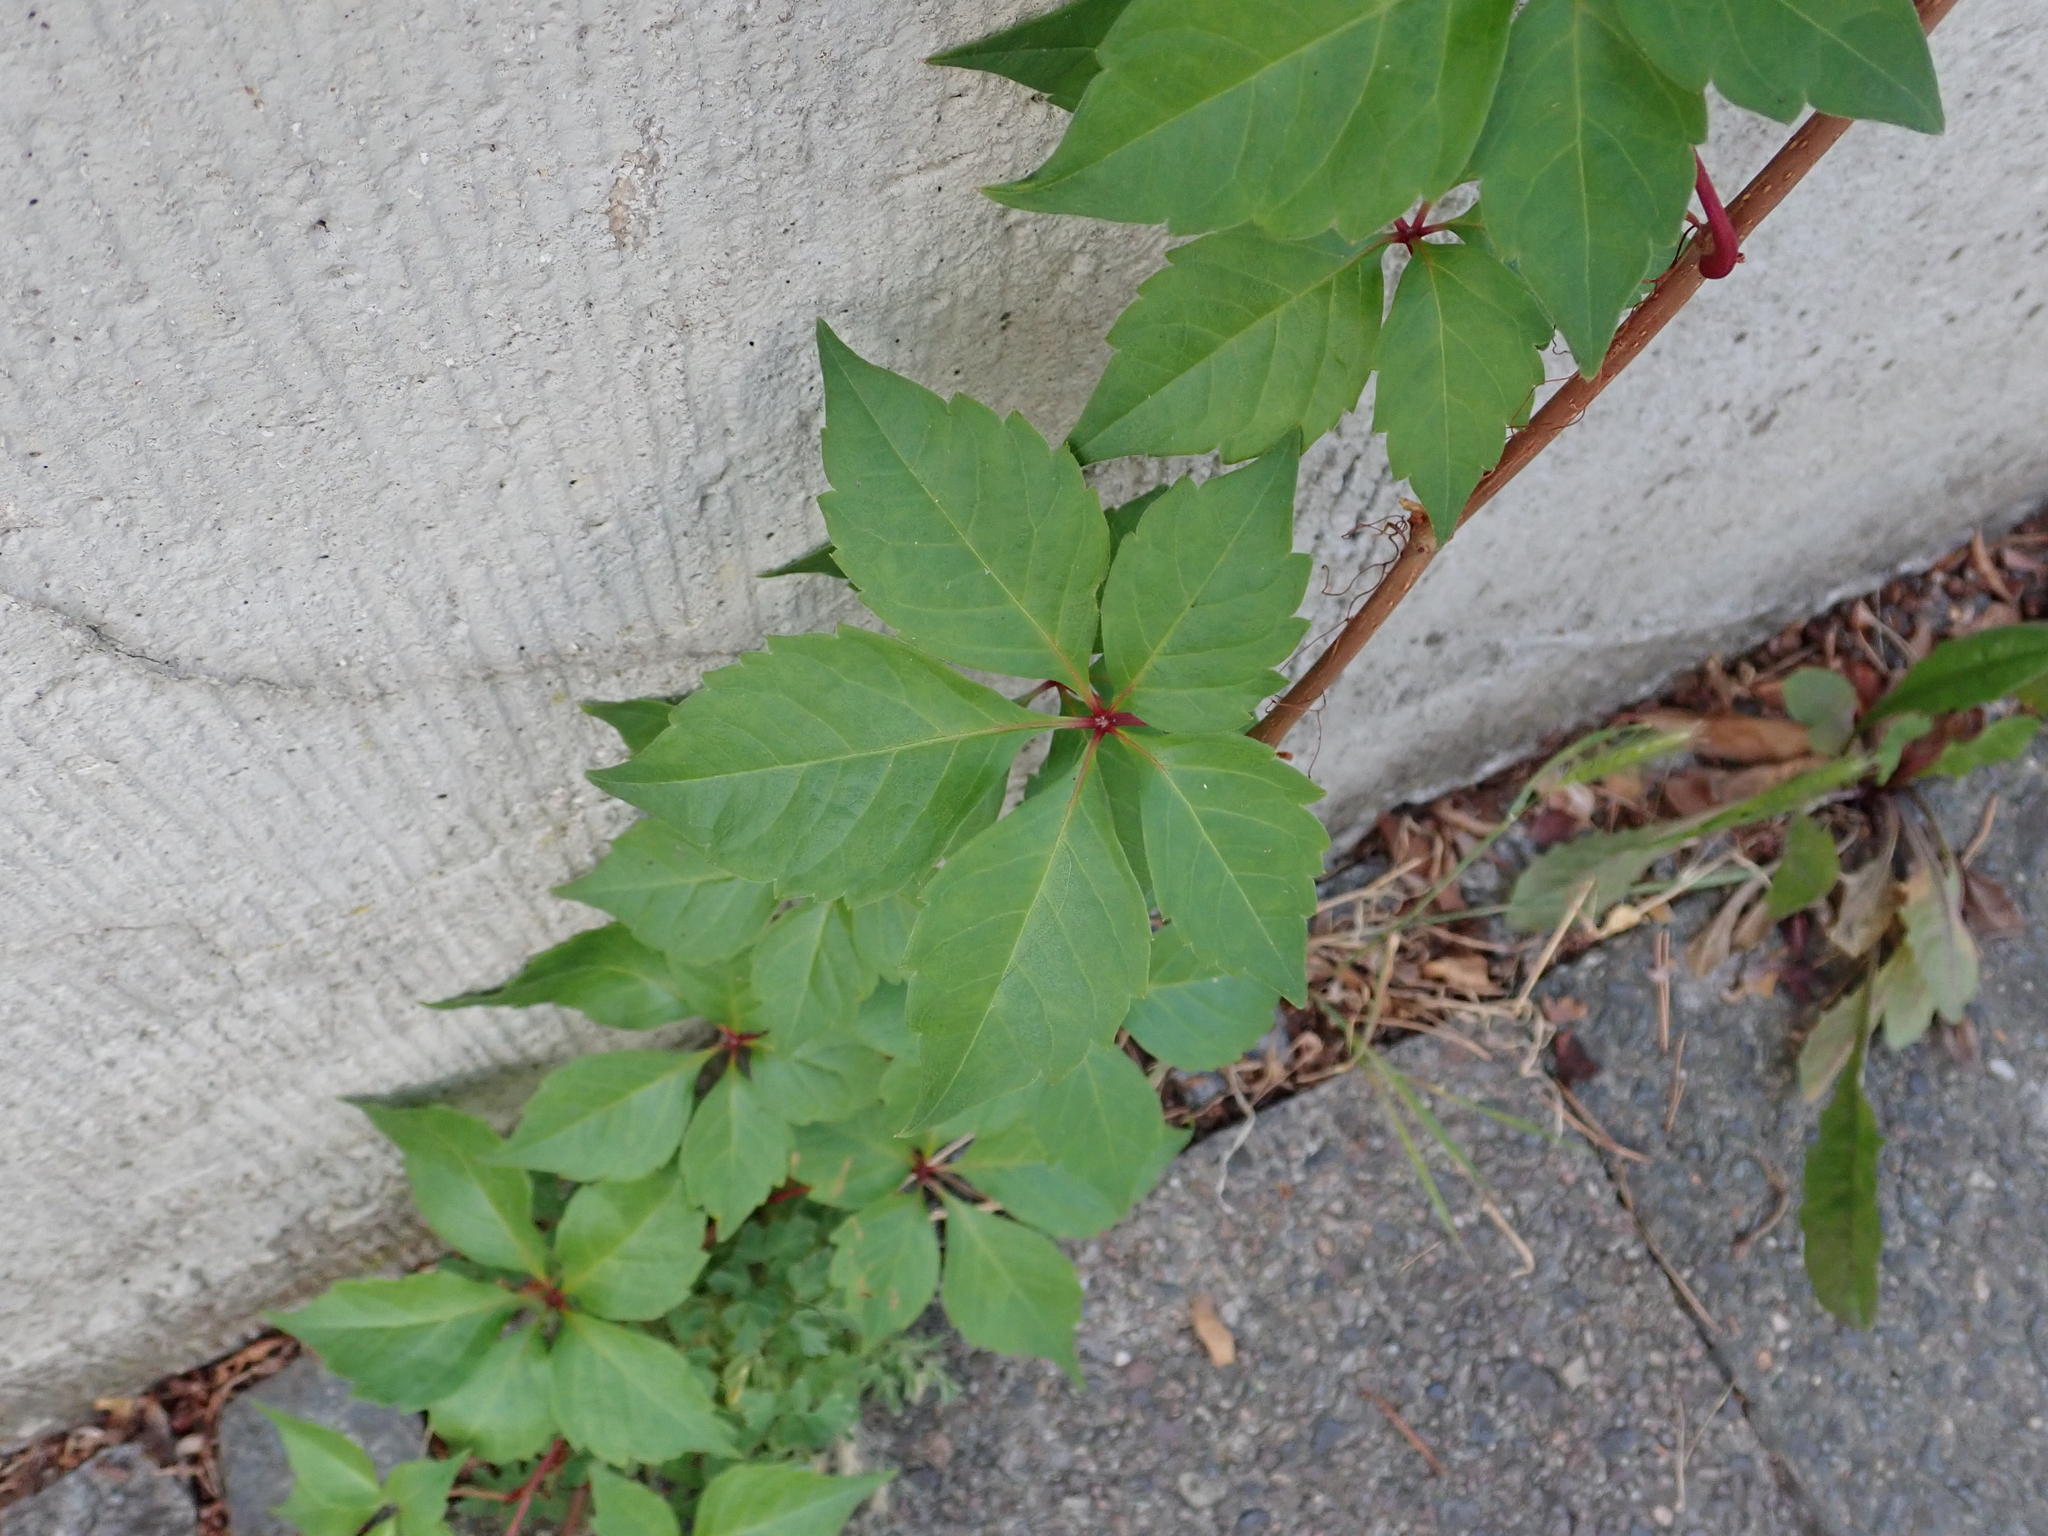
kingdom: Plantae
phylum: Tracheophyta
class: Magnoliopsida
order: Vitales
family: Vitaceae
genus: Parthenocissus
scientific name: Parthenocissus quinquefolia
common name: Virginia-creeper
